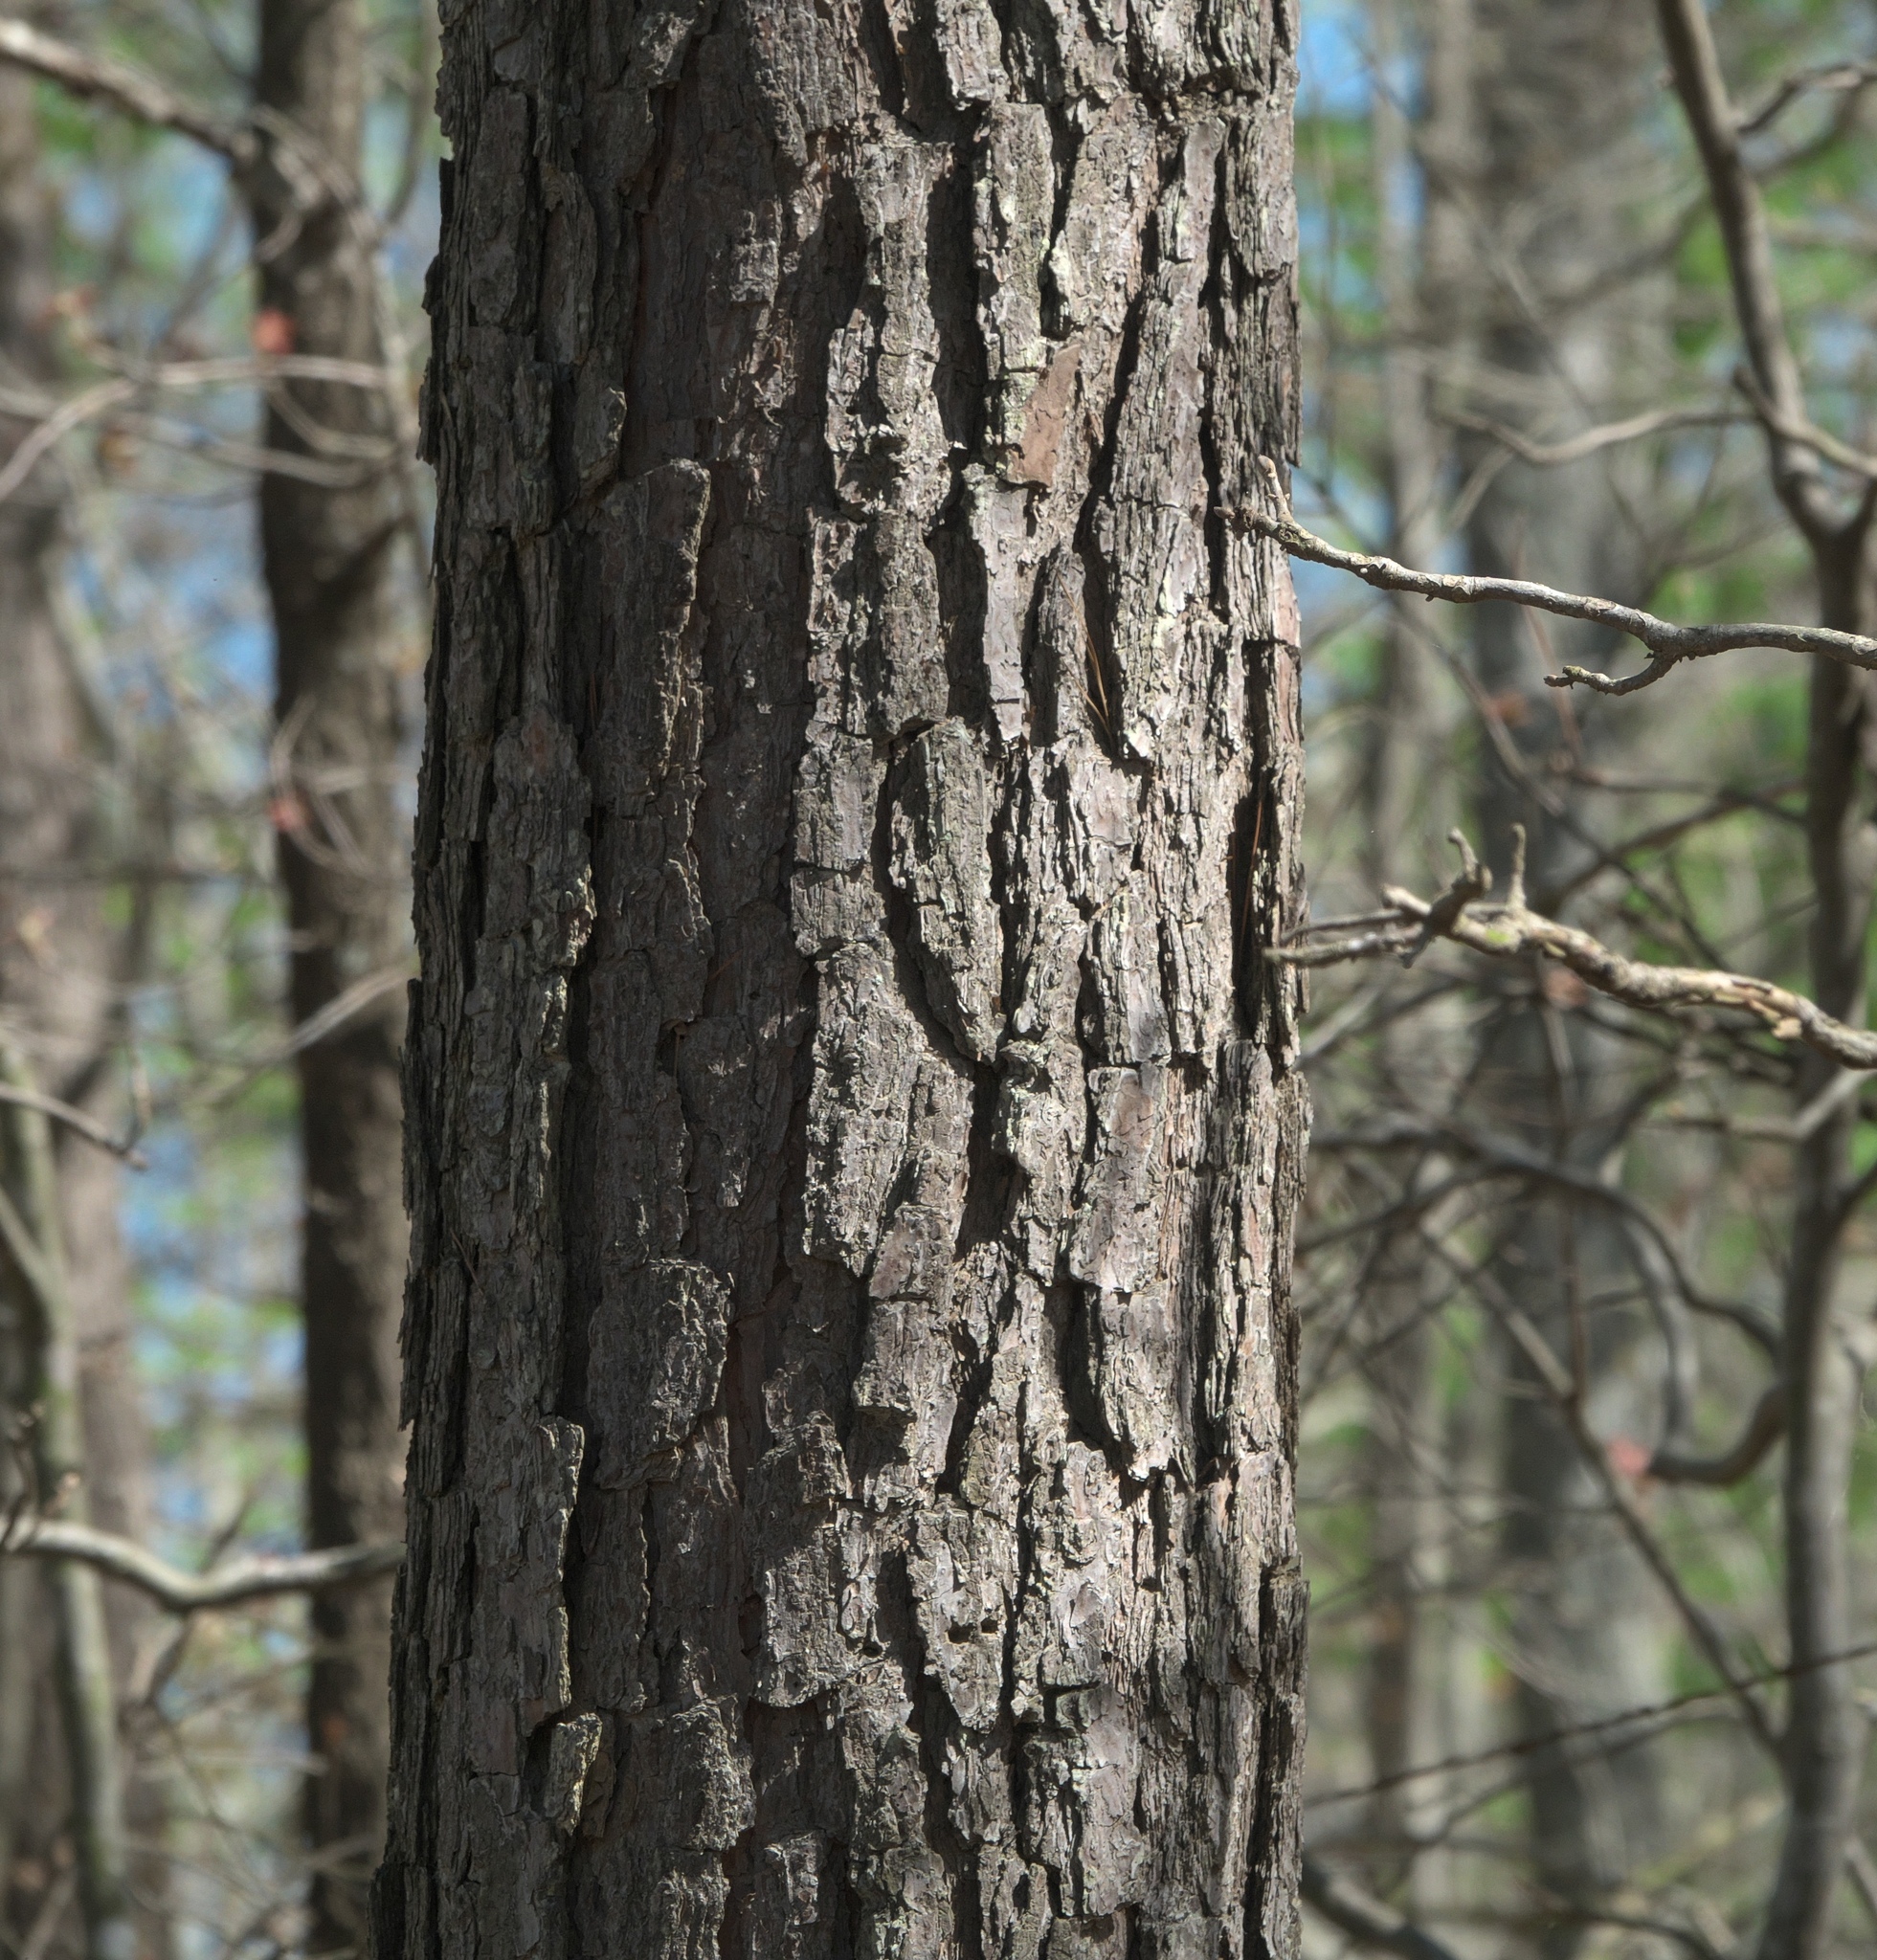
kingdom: Plantae
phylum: Tracheophyta
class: Pinopsida
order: Pinales
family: Pinaceae
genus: Pinus
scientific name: Pinus echinata
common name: Shortleaf pine
